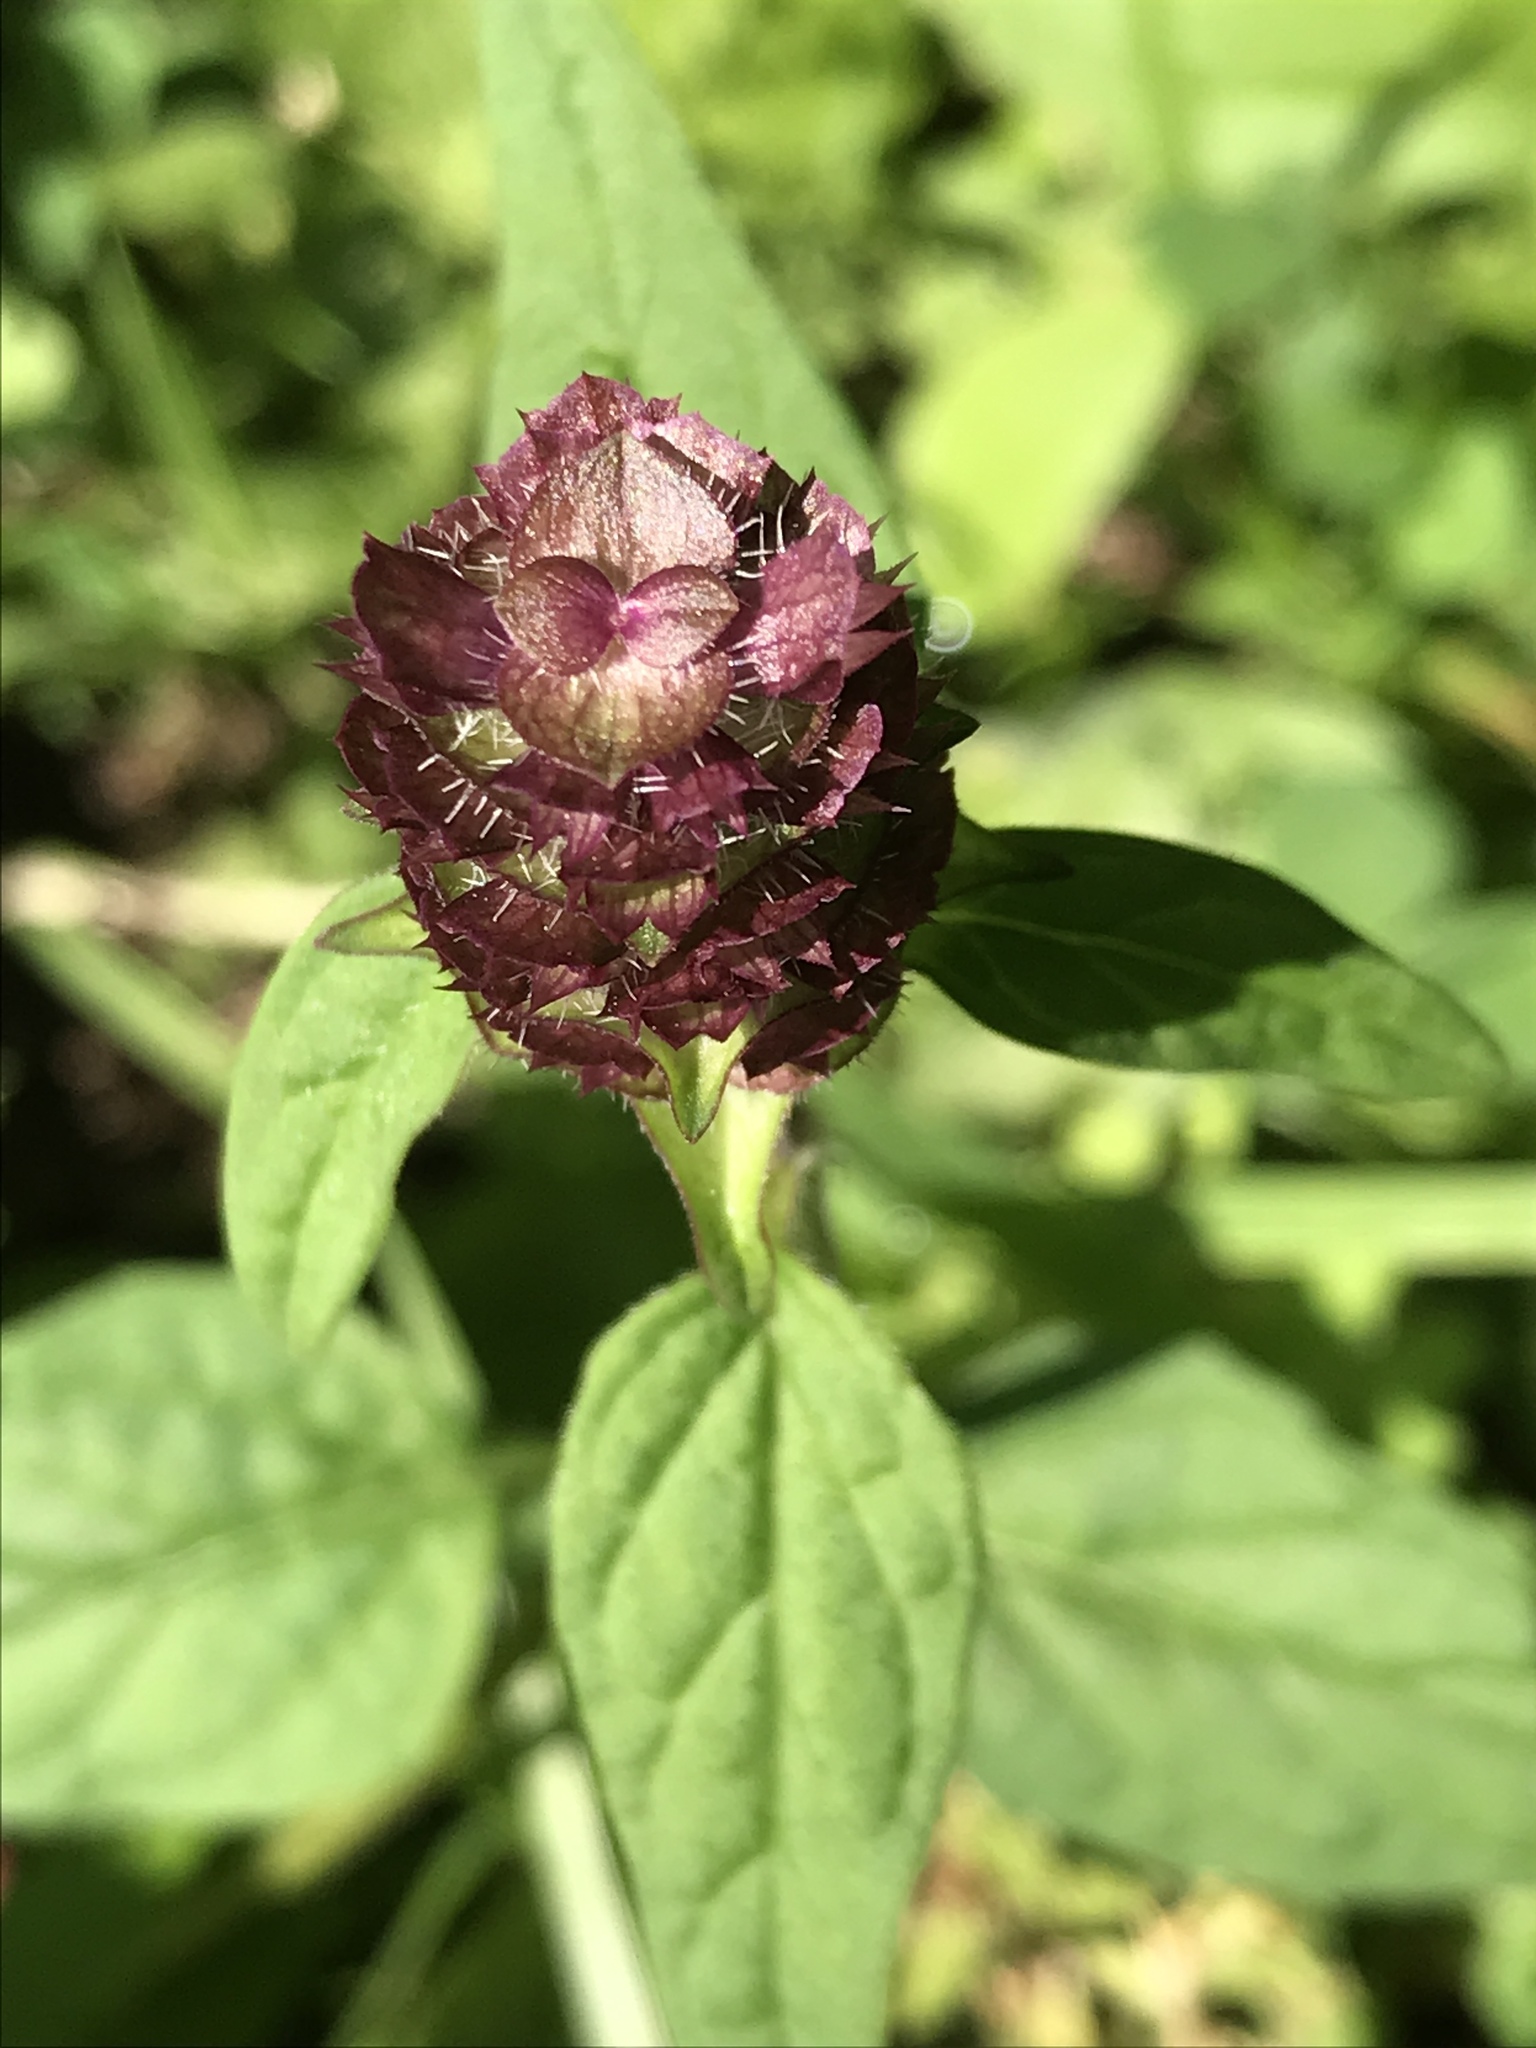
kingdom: Plantae
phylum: Tracheophyta
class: Magnoliopsida
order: Lamiales
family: Lamiaceae
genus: Prunella
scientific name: Prunella vulgaris
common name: Heal-all
